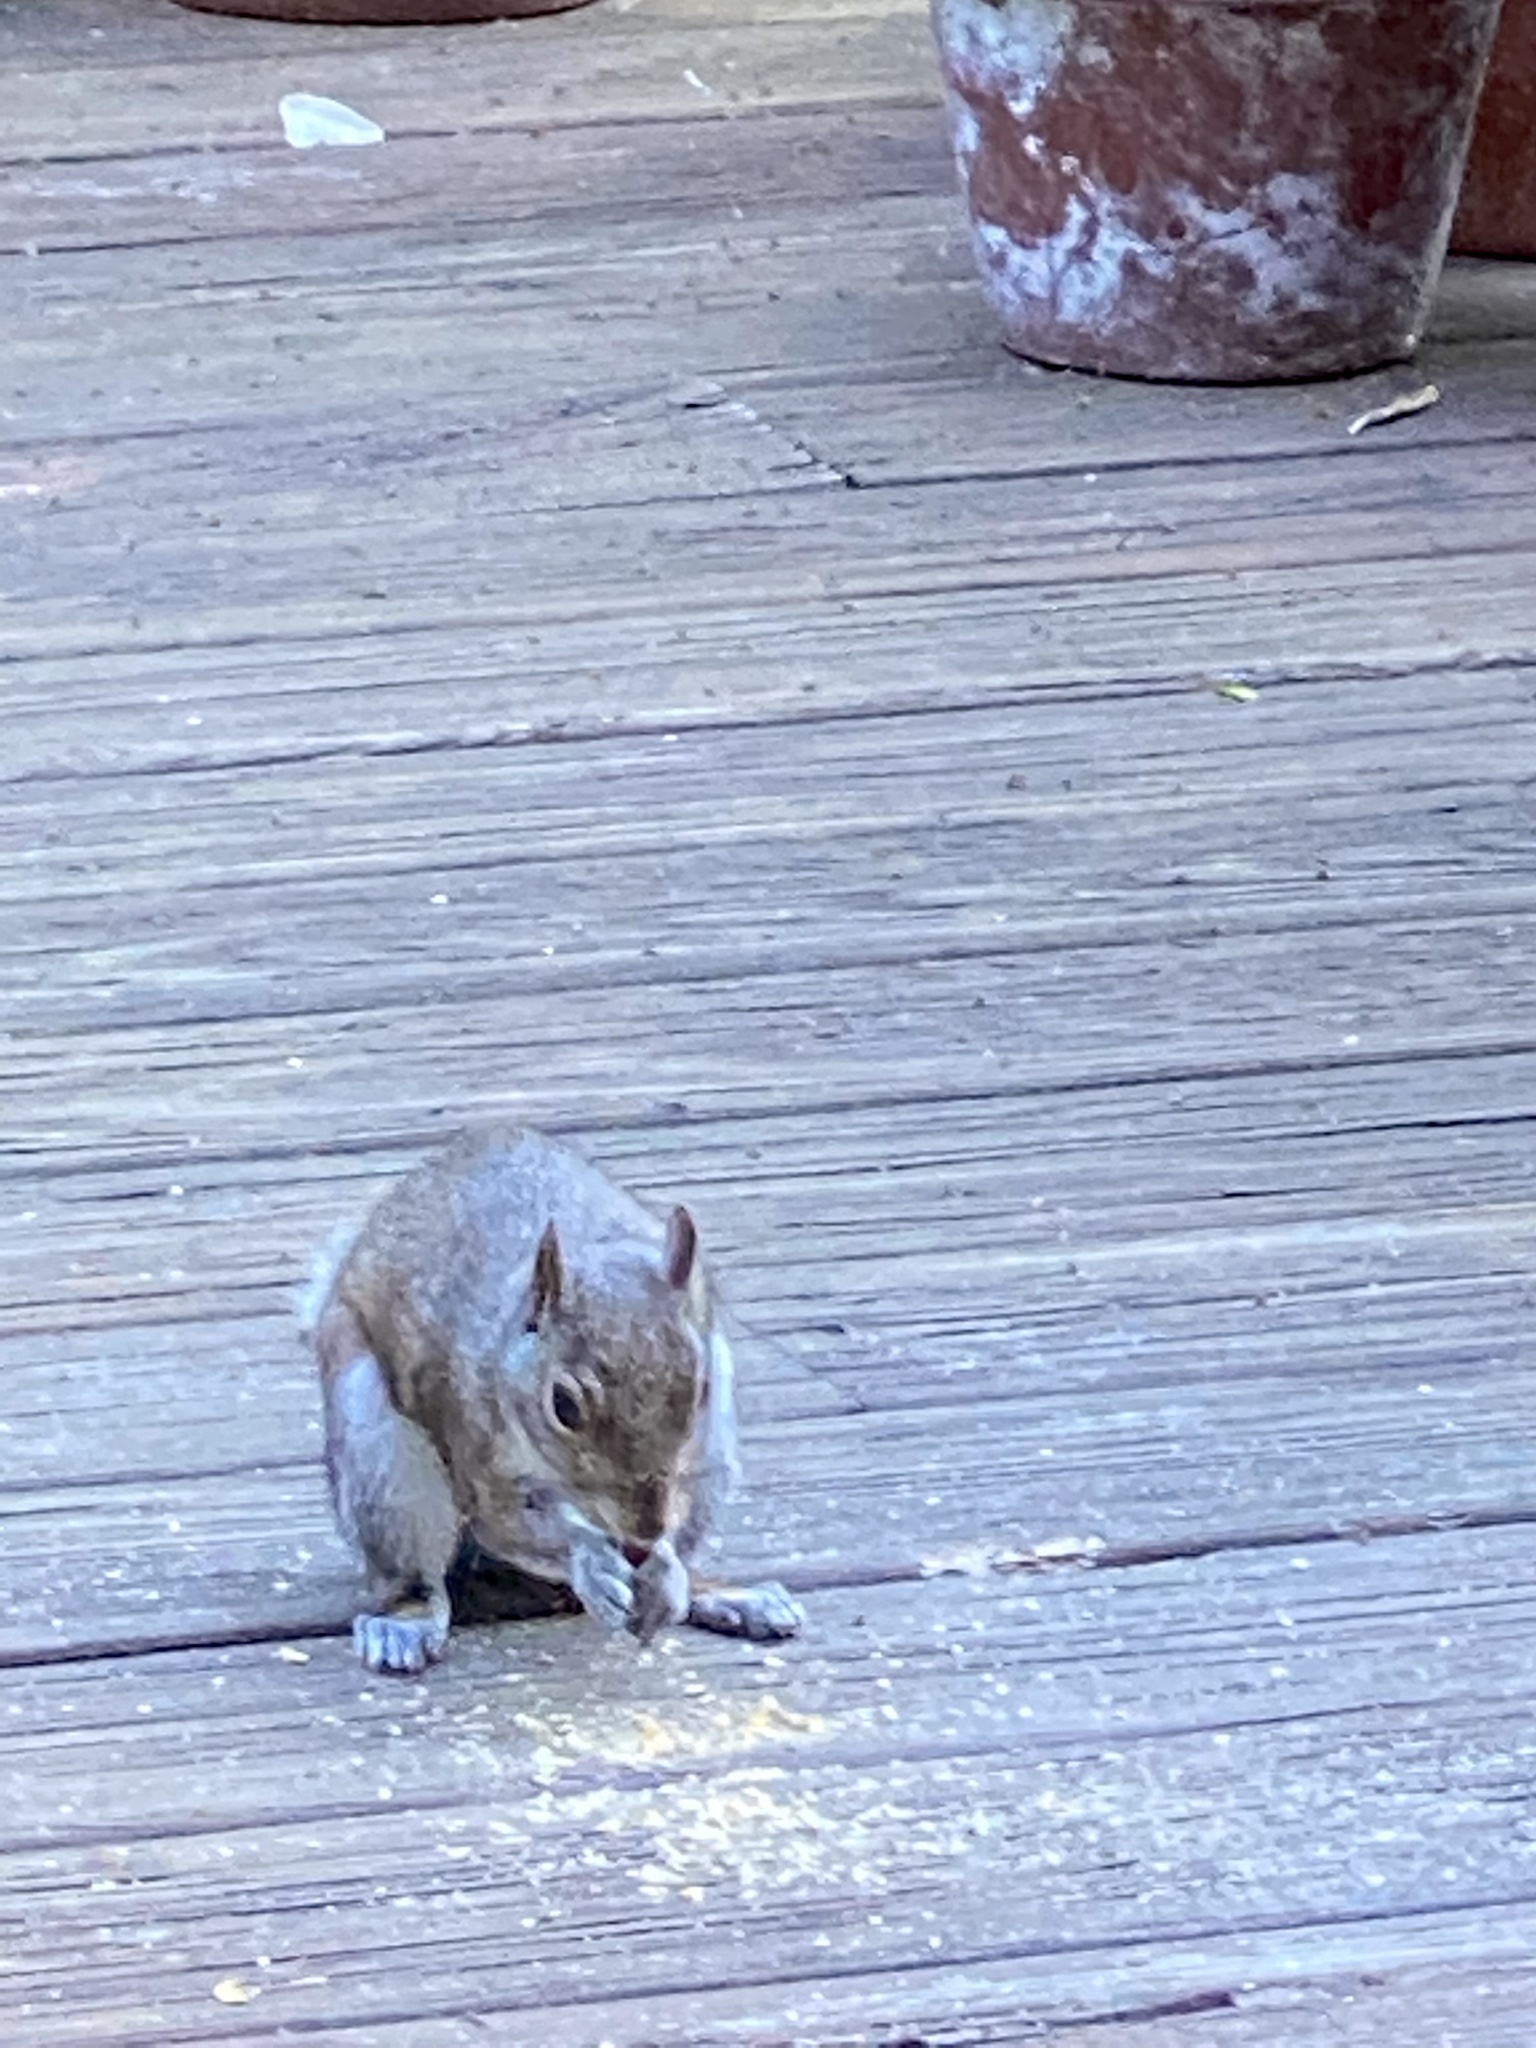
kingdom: Animalia
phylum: Chordata
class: Mammalia
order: Rodentia
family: Sciuridae
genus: Sciurus
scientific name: Sciurus carolinensis
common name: Eastern gray squirrel
